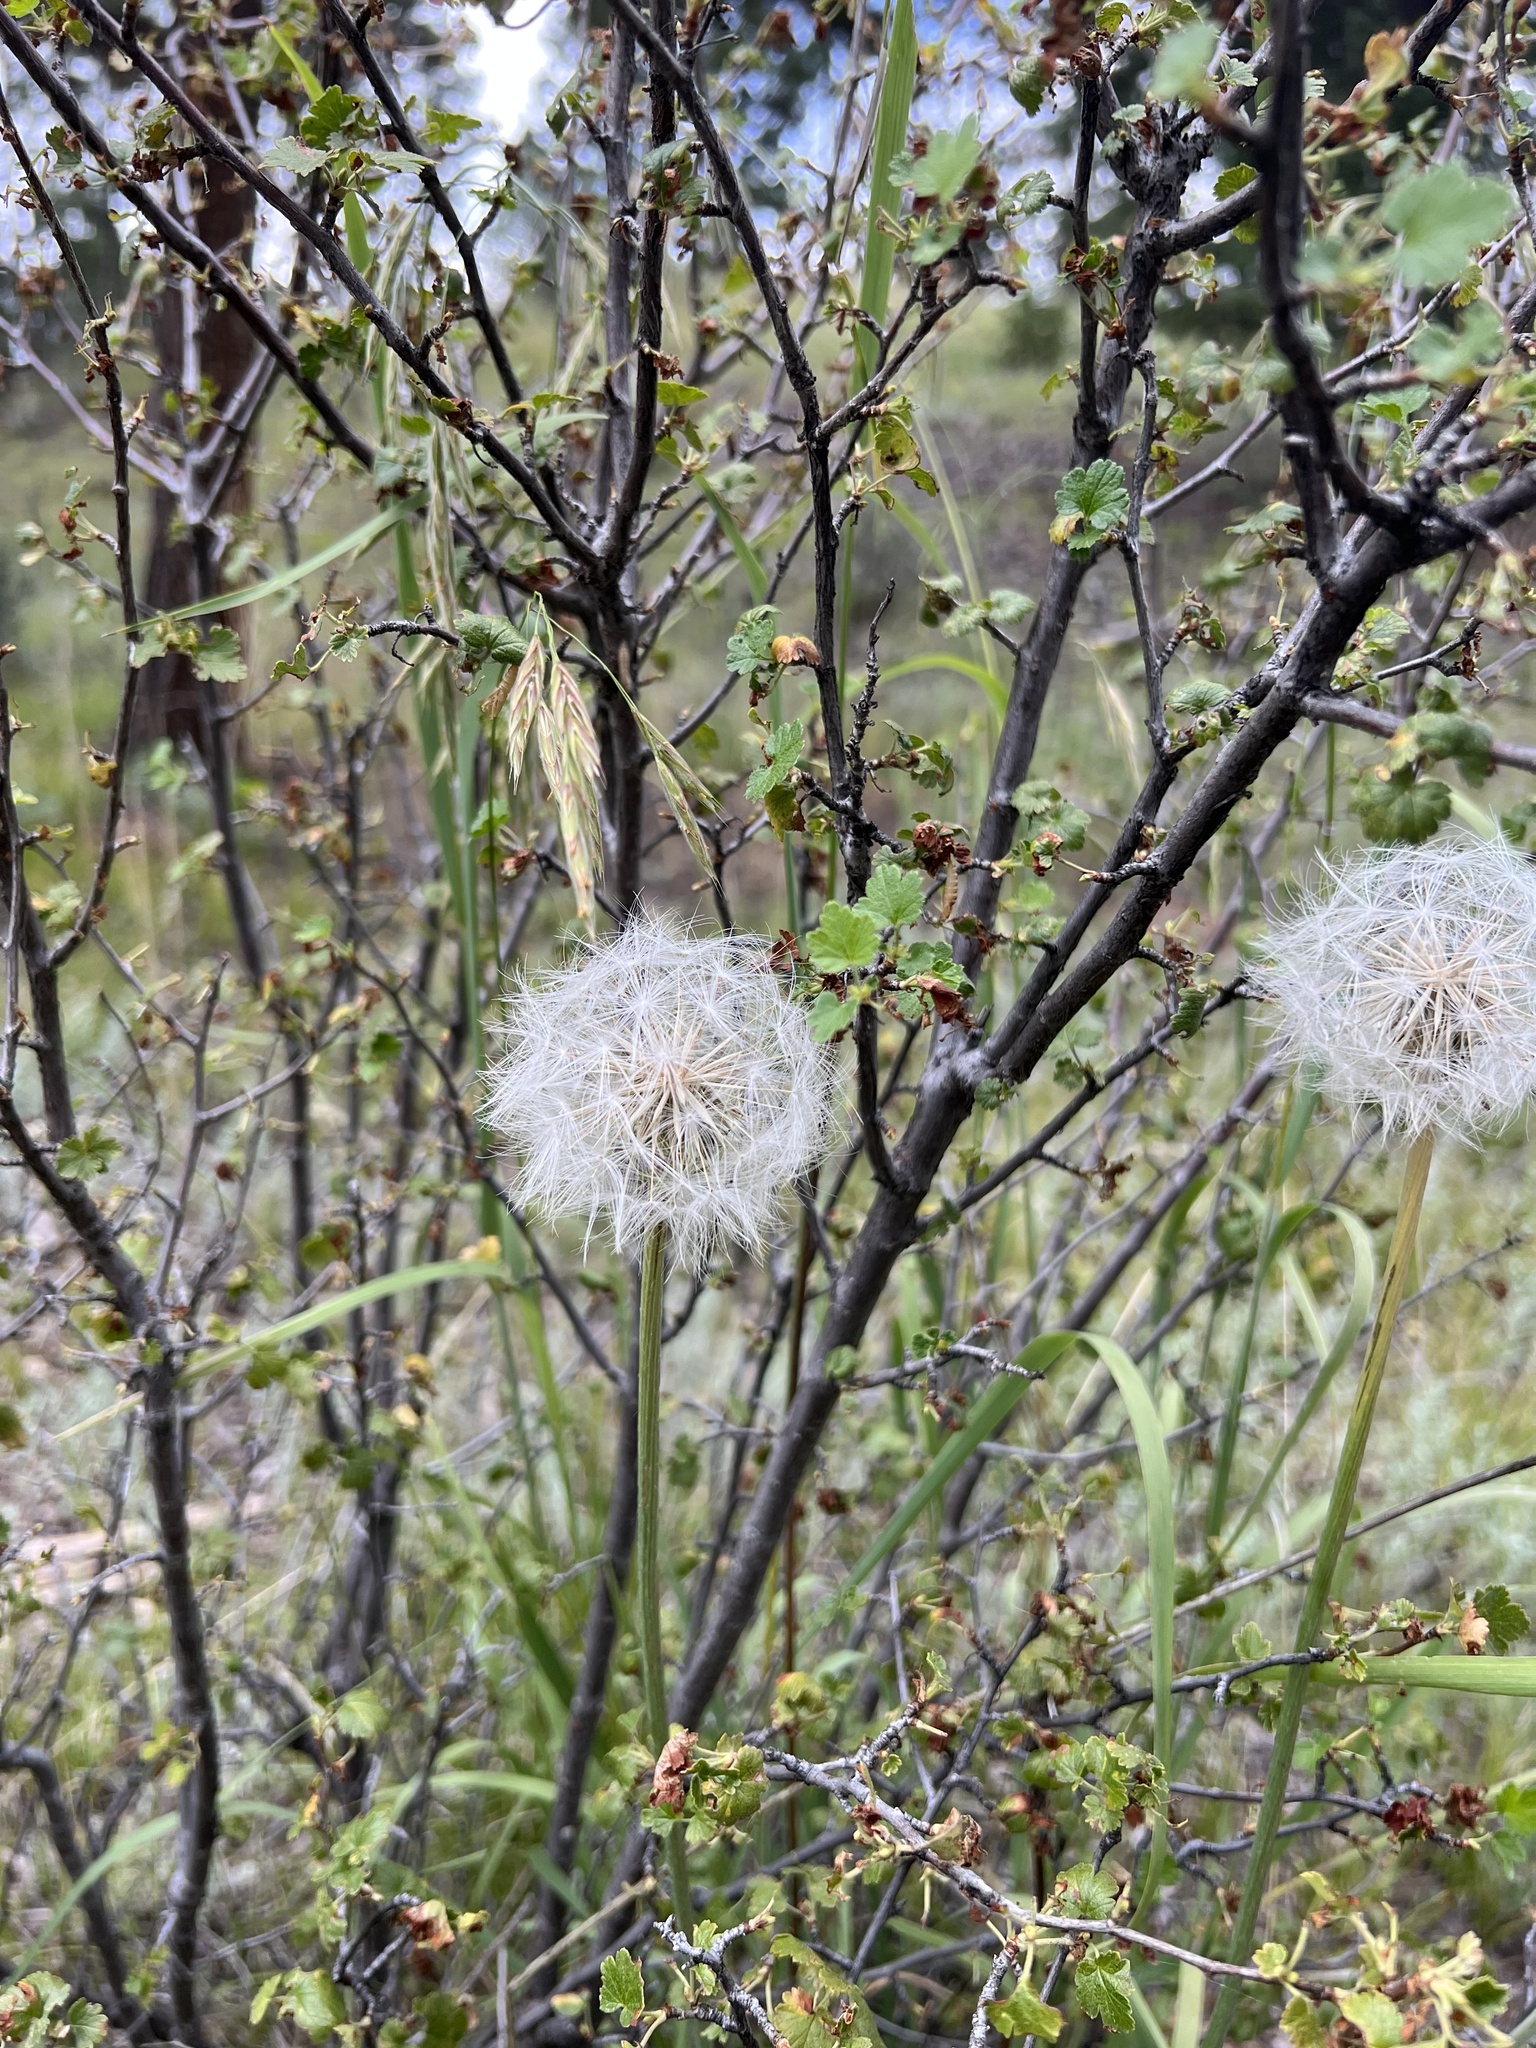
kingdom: Plantae
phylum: Tracheophyta
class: Magnoliopsida
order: Asterales
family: Asteraceae
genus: Agoseris
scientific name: Agoseris glauca
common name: Prairie agoseris
